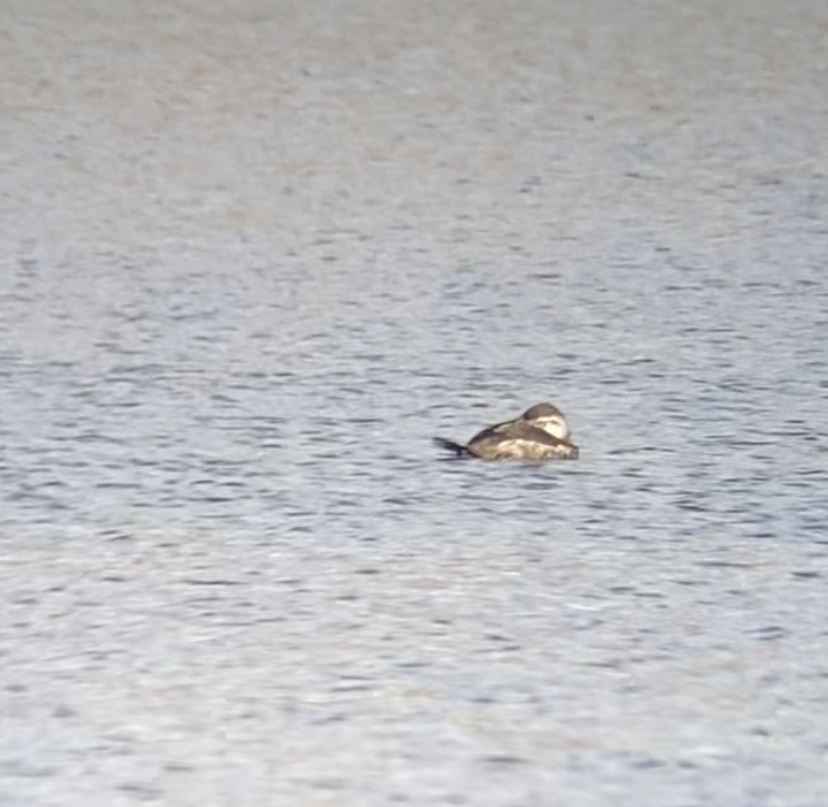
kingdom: Animalia
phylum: Chordata
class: Aves
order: Anseriformes
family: Anatidae
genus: Oxyura
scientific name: Oxyura jamaicensis
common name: Ruddy duck
